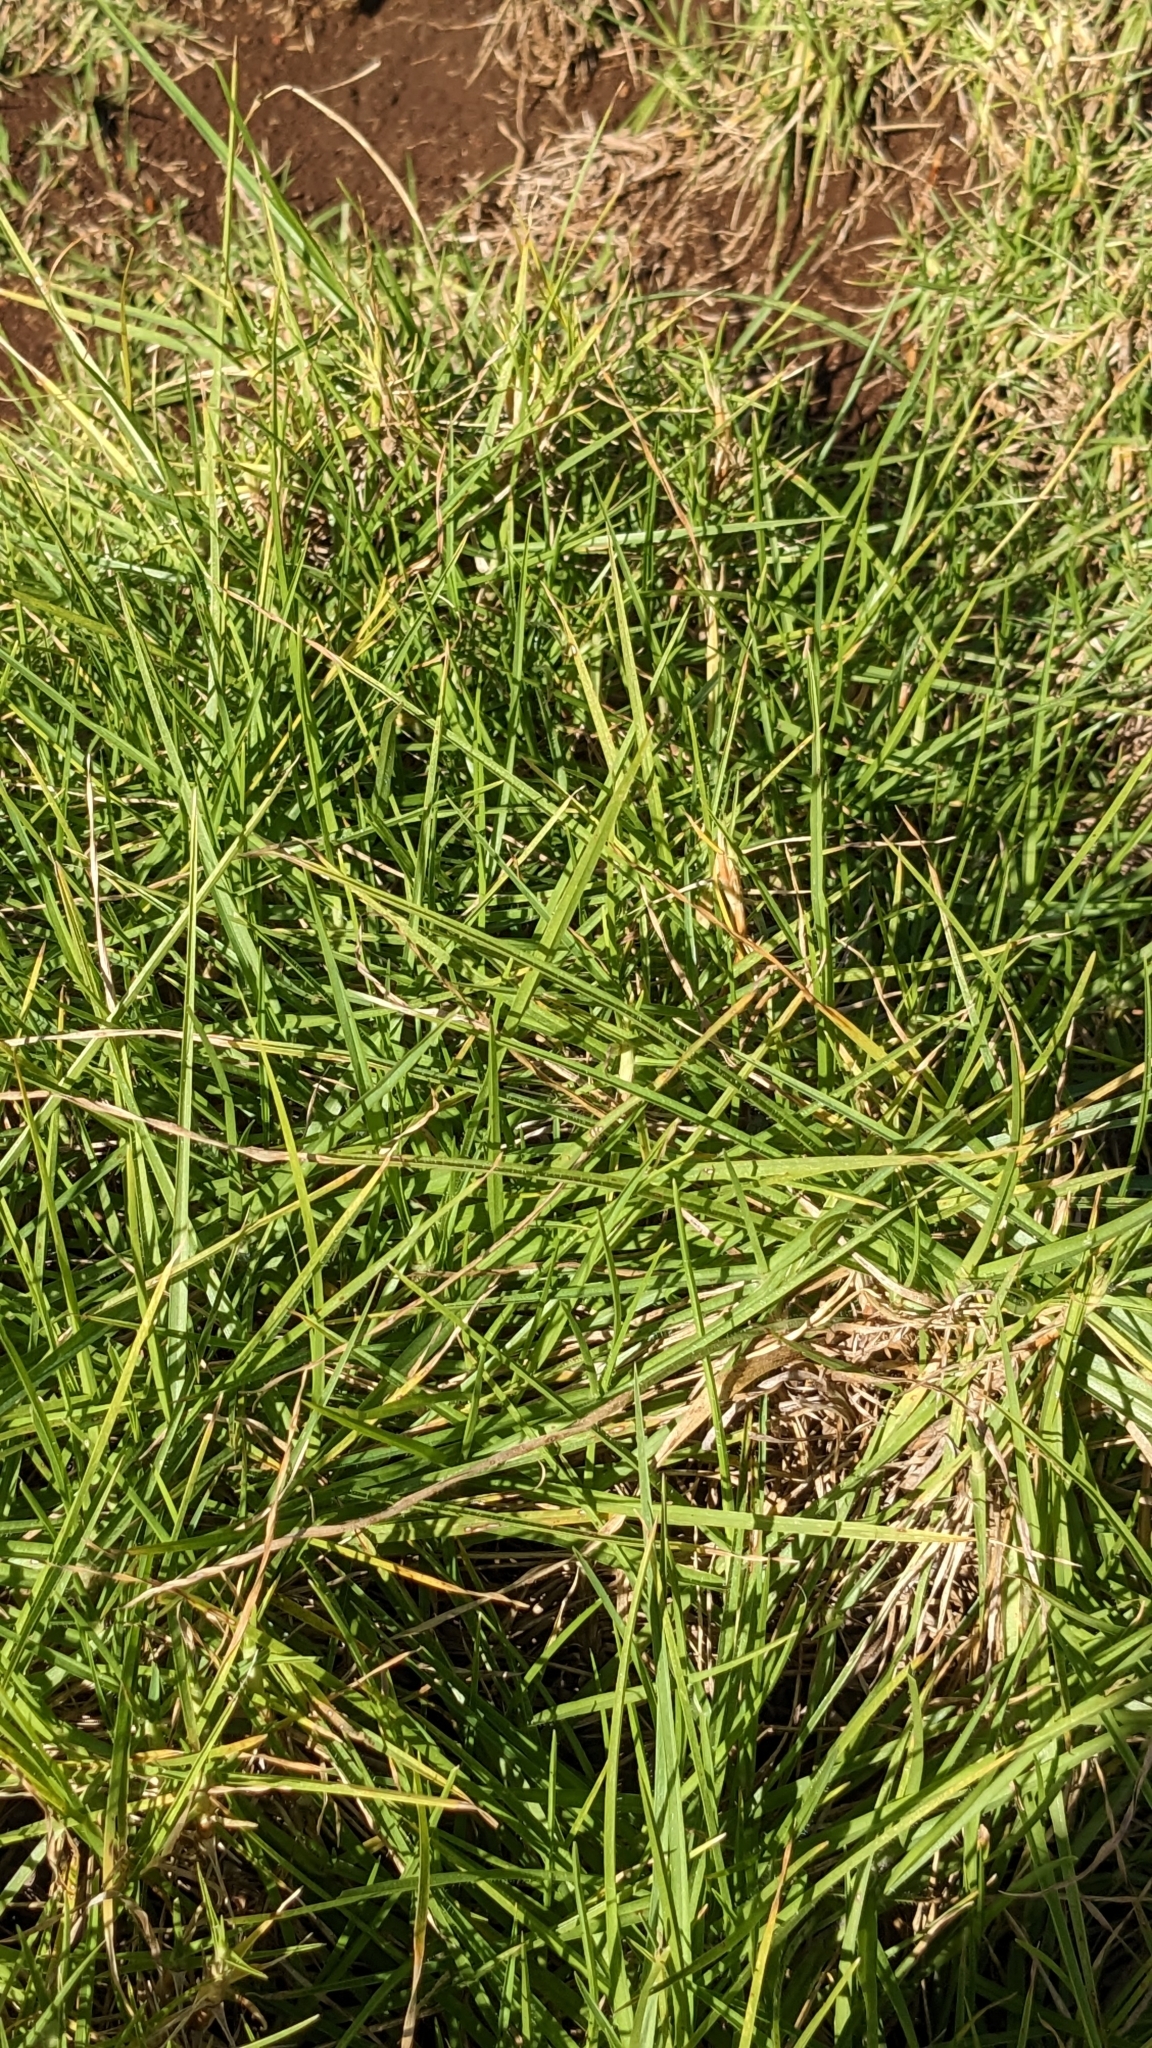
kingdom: Plantae
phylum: Tracheophyta
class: Liliopsida
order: Poales
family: Poaceae
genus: Cenchrus
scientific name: Cenchrus clandestinus
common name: Kikuyugrass
